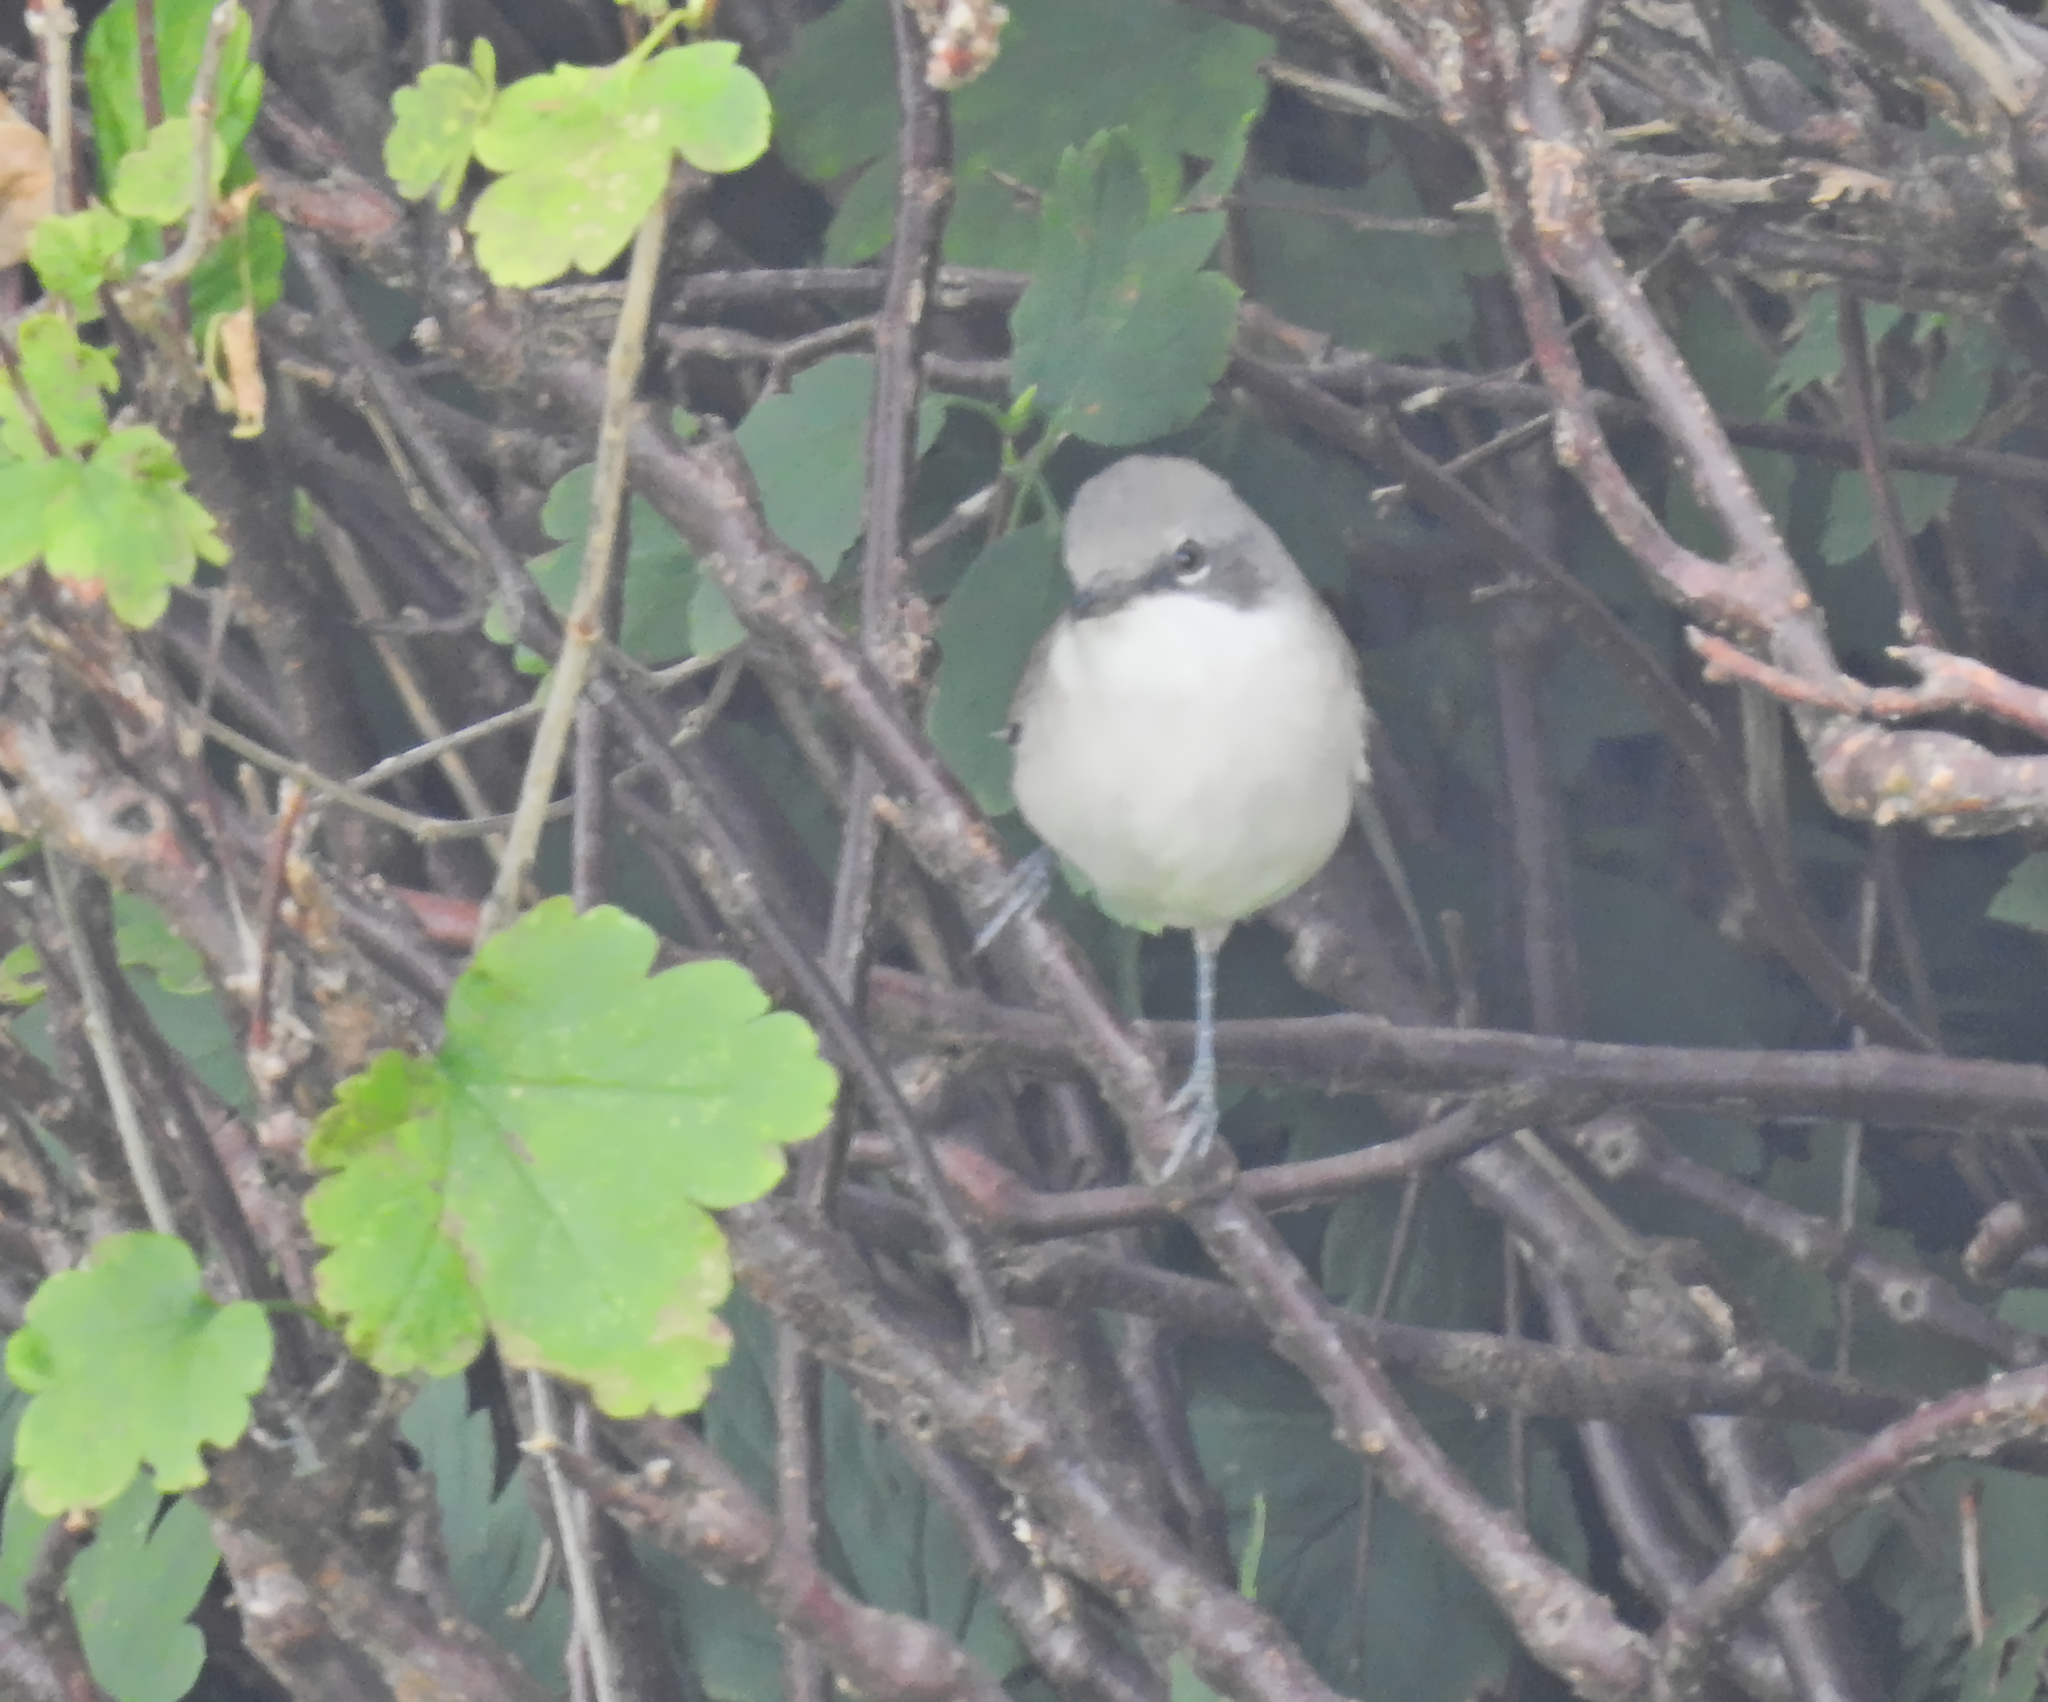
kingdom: Animalia
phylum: Chordata
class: Aves
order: Passeriformes
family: Sylviidae
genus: Sylvia
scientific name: Sylvia curruca
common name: Lesser whitethroat
